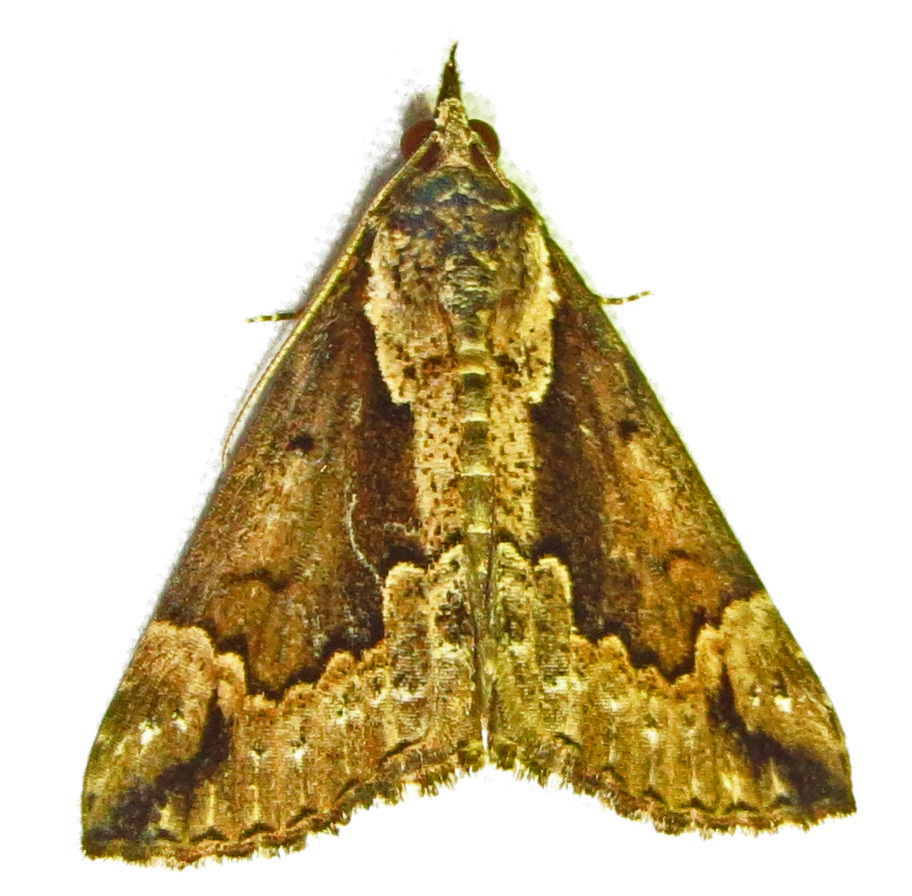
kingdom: Animalia
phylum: Arthropoda
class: Insecta
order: Lepidoptera
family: Erebidae
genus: Hypena
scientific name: Hypena baltimoralis
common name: Baltimore snout
